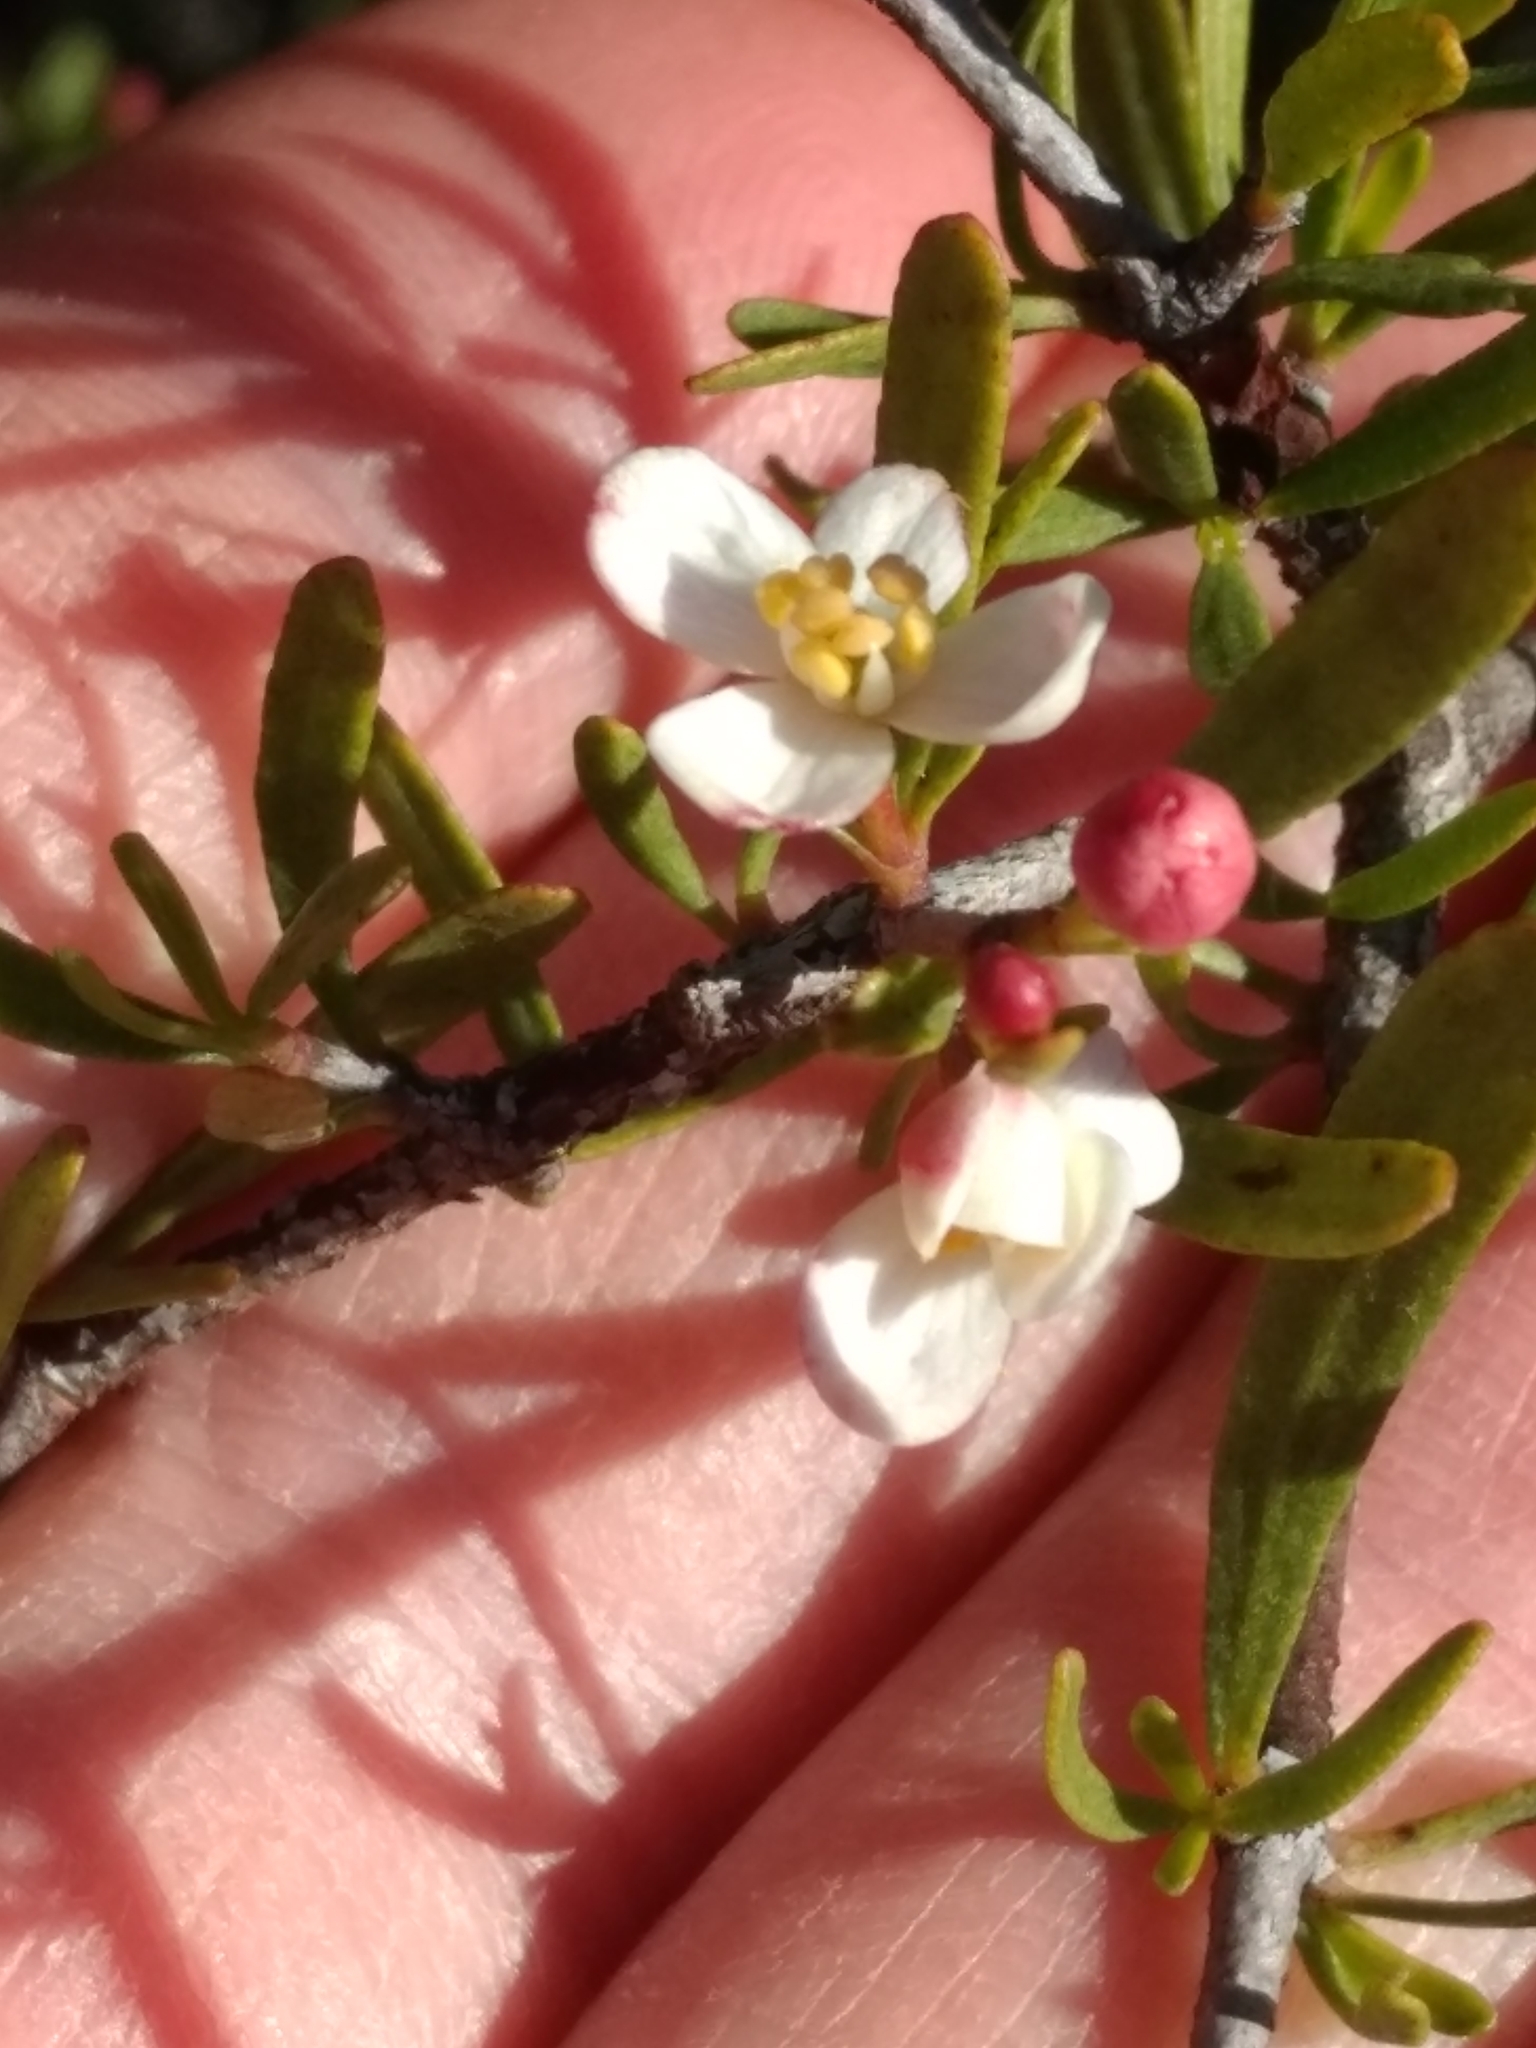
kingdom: Plantae
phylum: Tracheophyta
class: Magnoliopsida
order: Sapindales
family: Rutaceae
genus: Cneoridium
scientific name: Cneoridium dumosum
